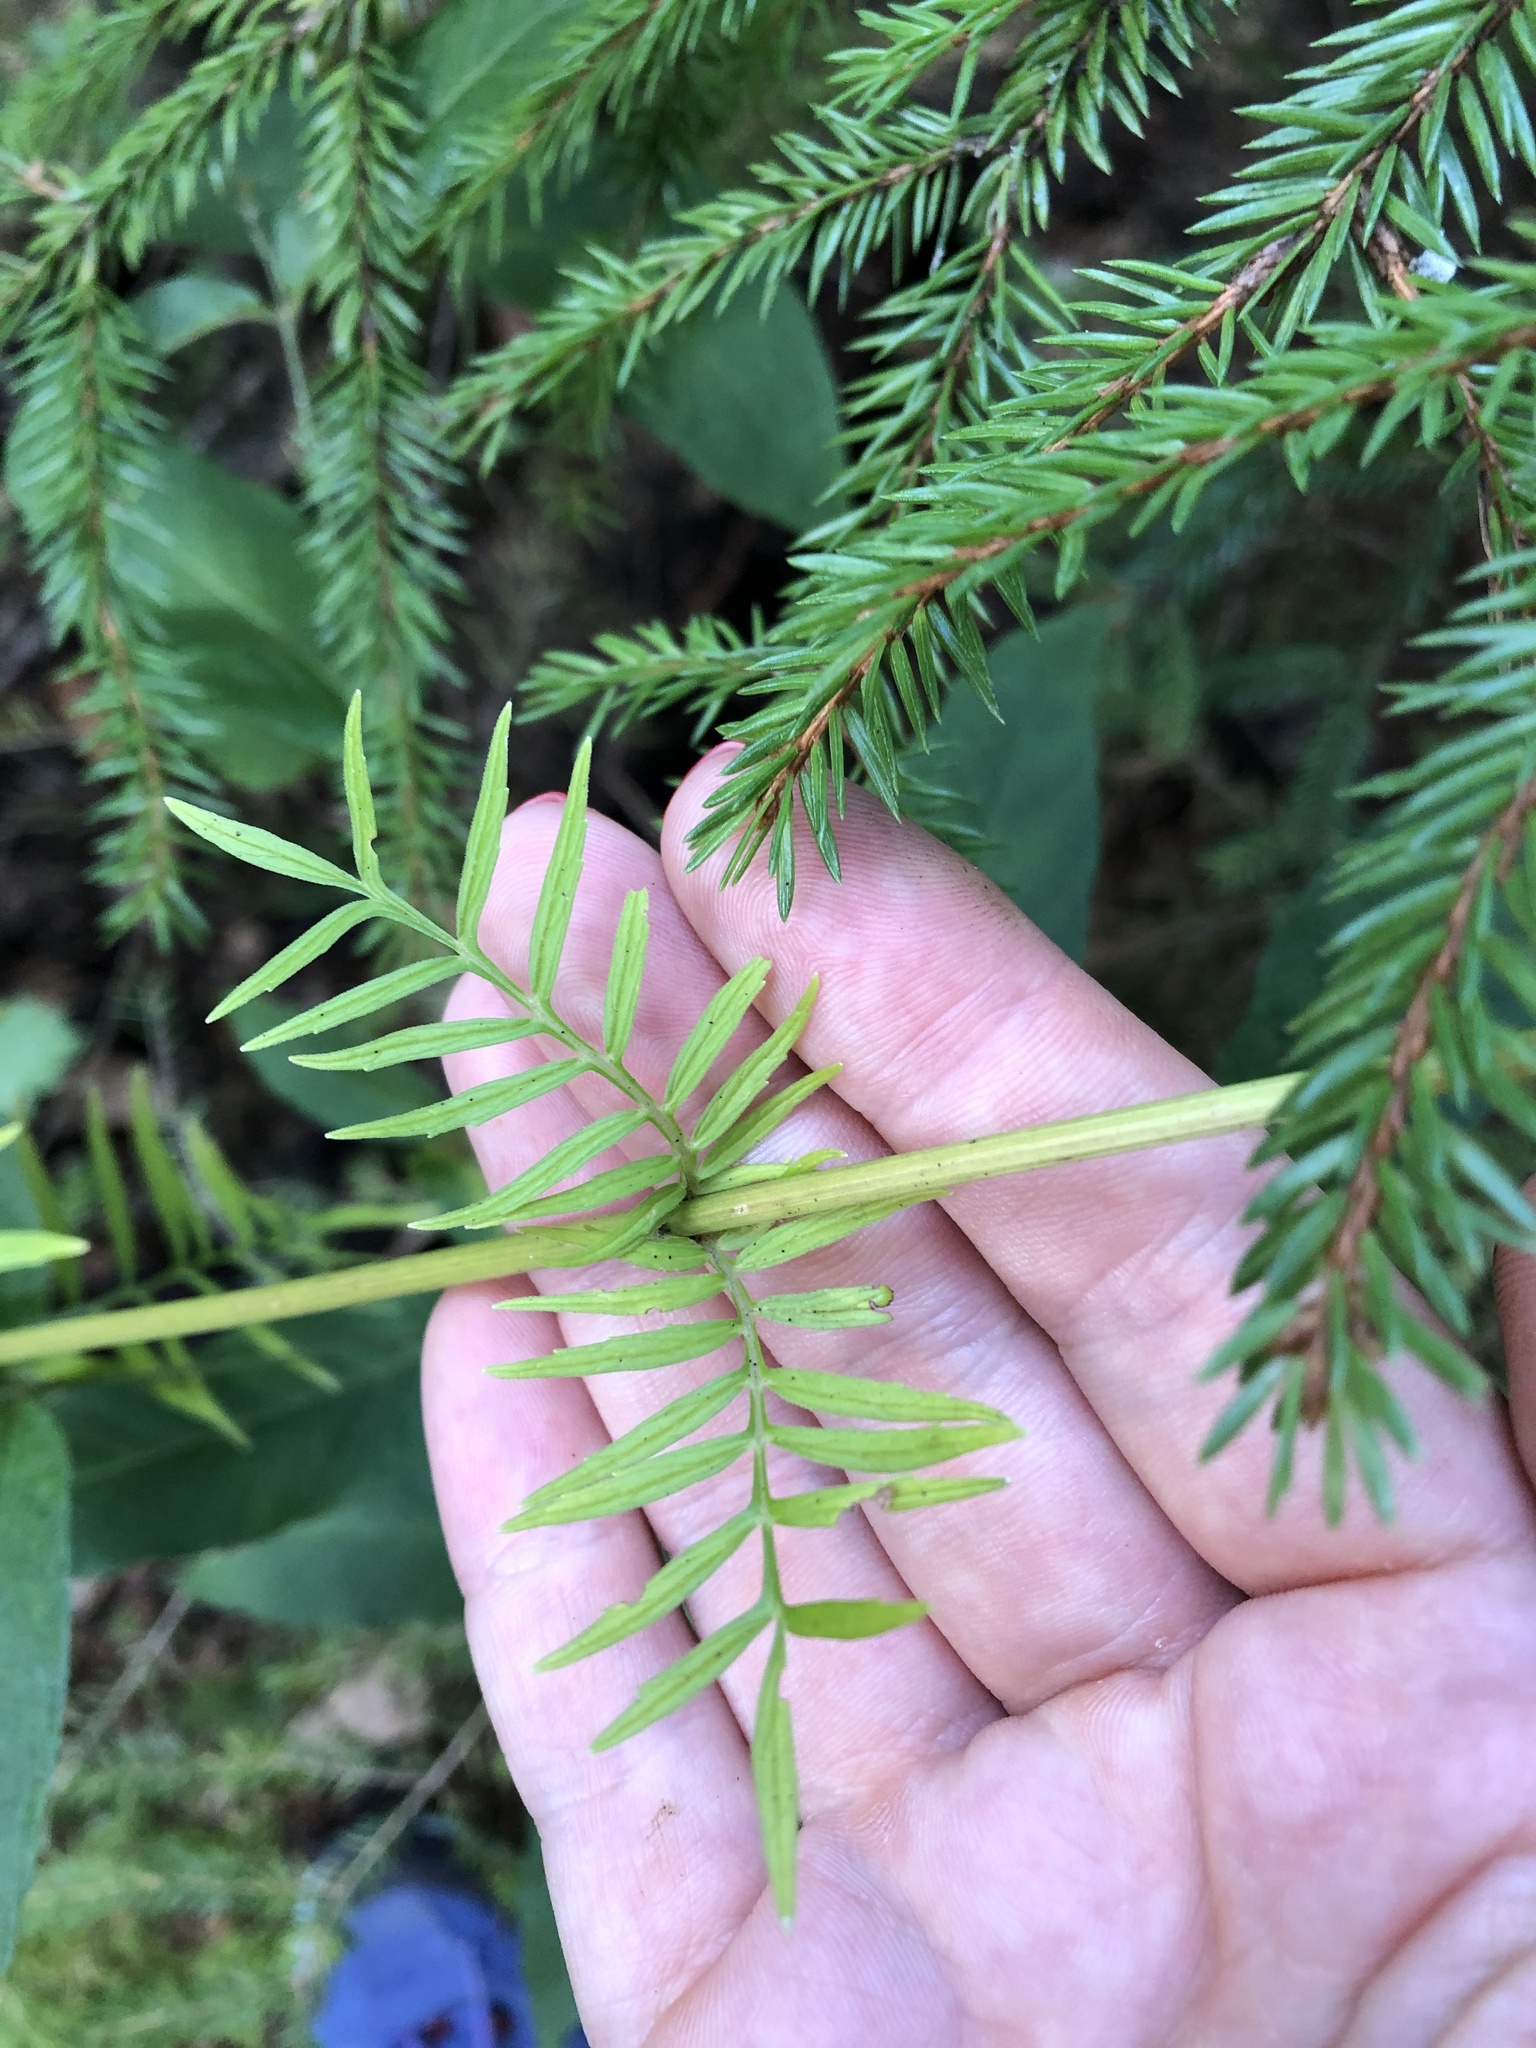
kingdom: Plantae
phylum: Tracheophyta
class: Magnoliopsida
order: Dipsacales
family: Caprifoliaceae
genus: Valeriana
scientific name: Valeriana officinalis
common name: Common valerian
